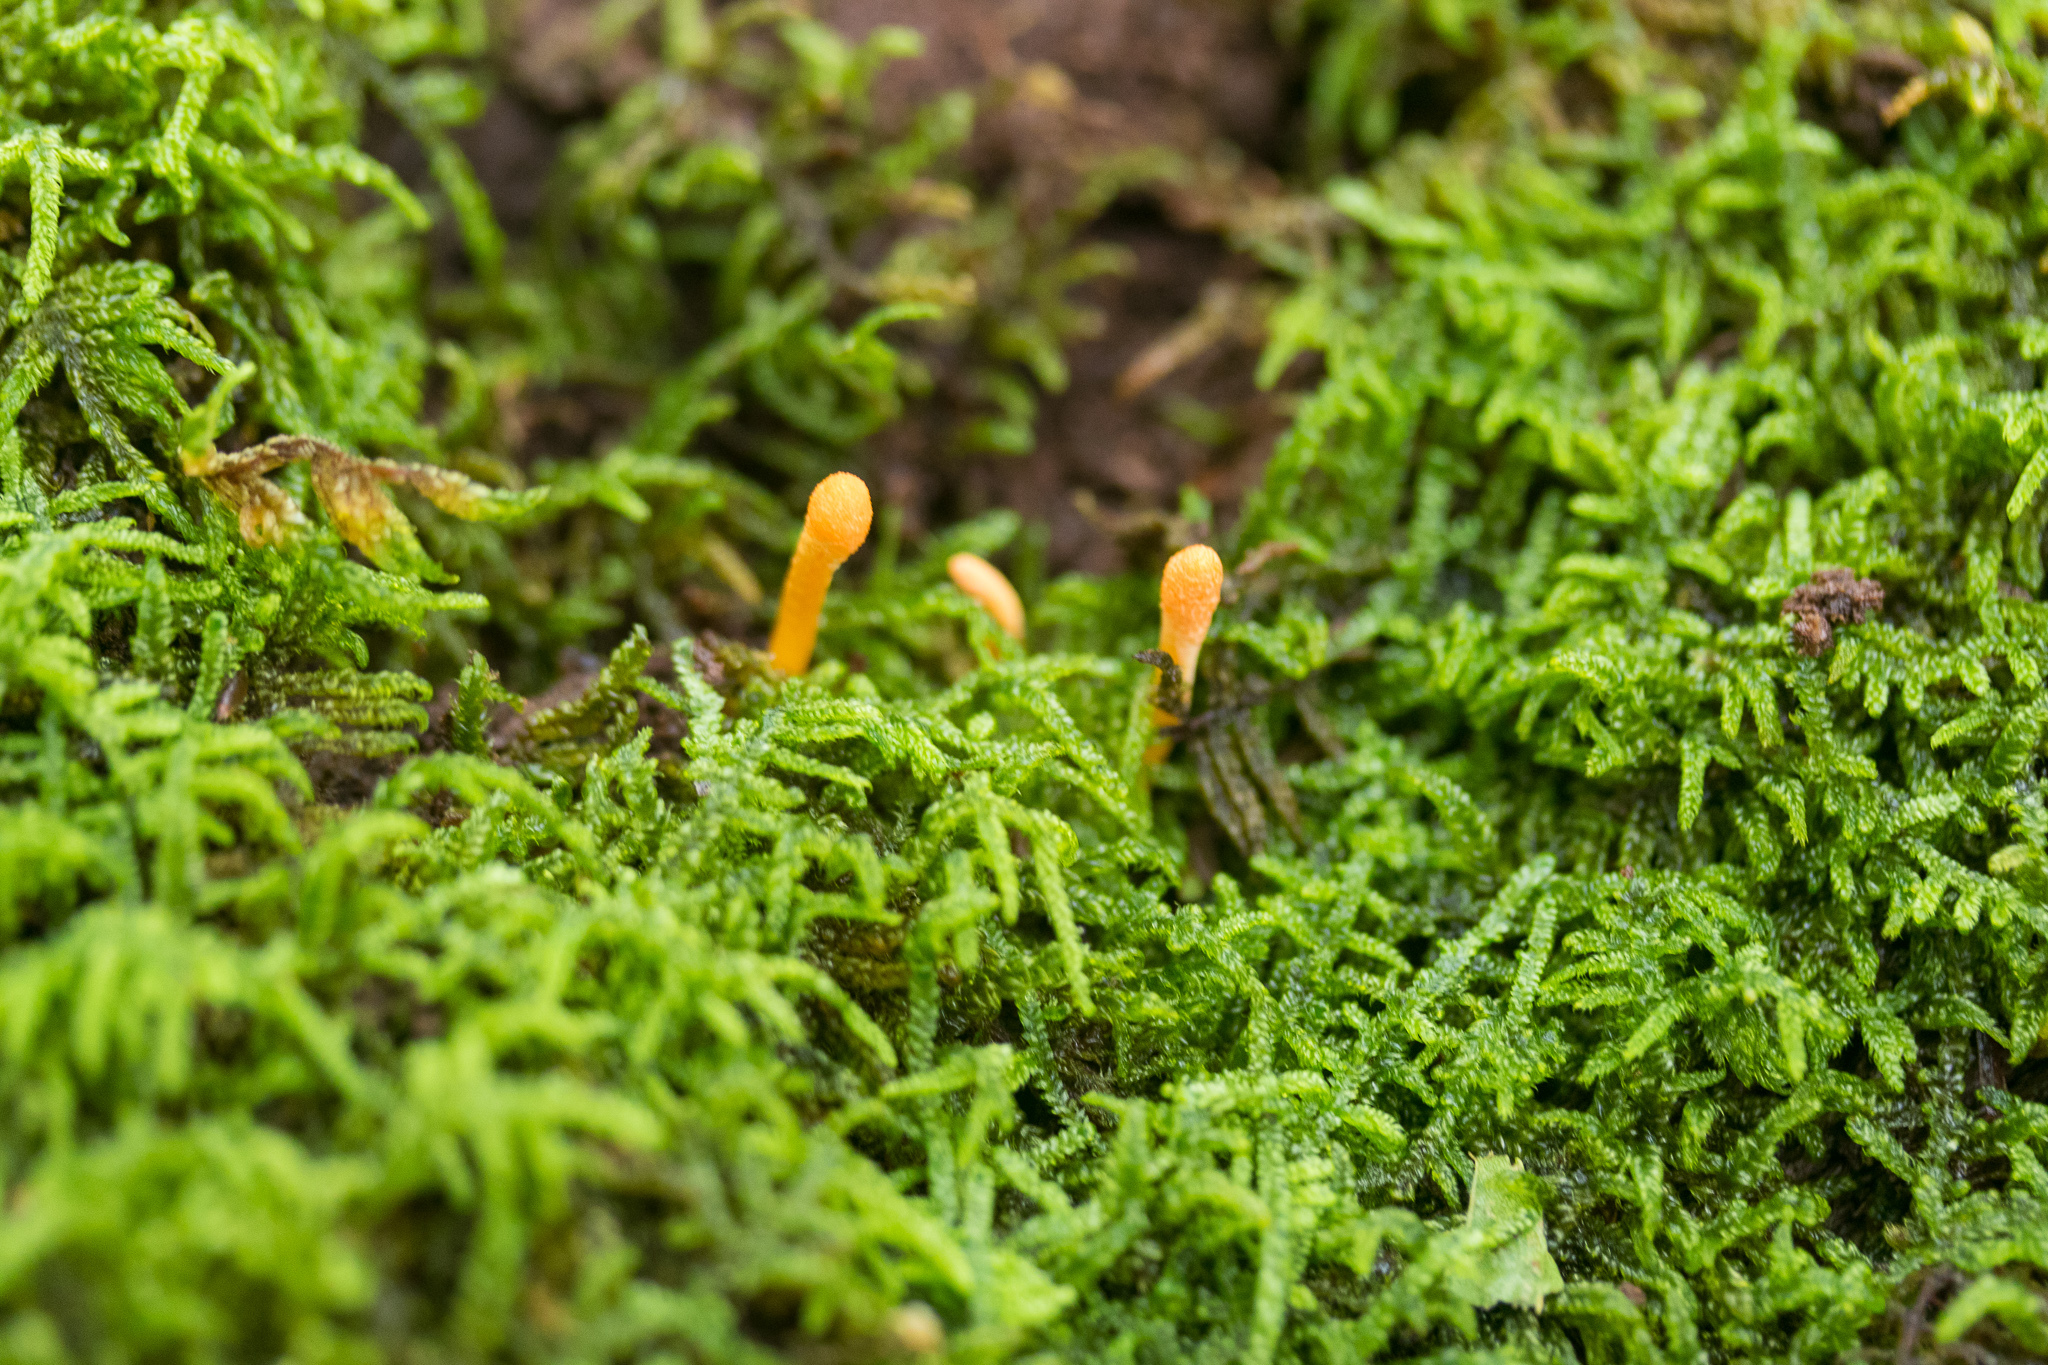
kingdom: Fungi
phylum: Ascomycota
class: Sordariomycetes
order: Hypocreales
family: Cordycipitaceae
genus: Cordyceps
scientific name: Cordyceps militaris
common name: Scarlet caterpillar fungus
